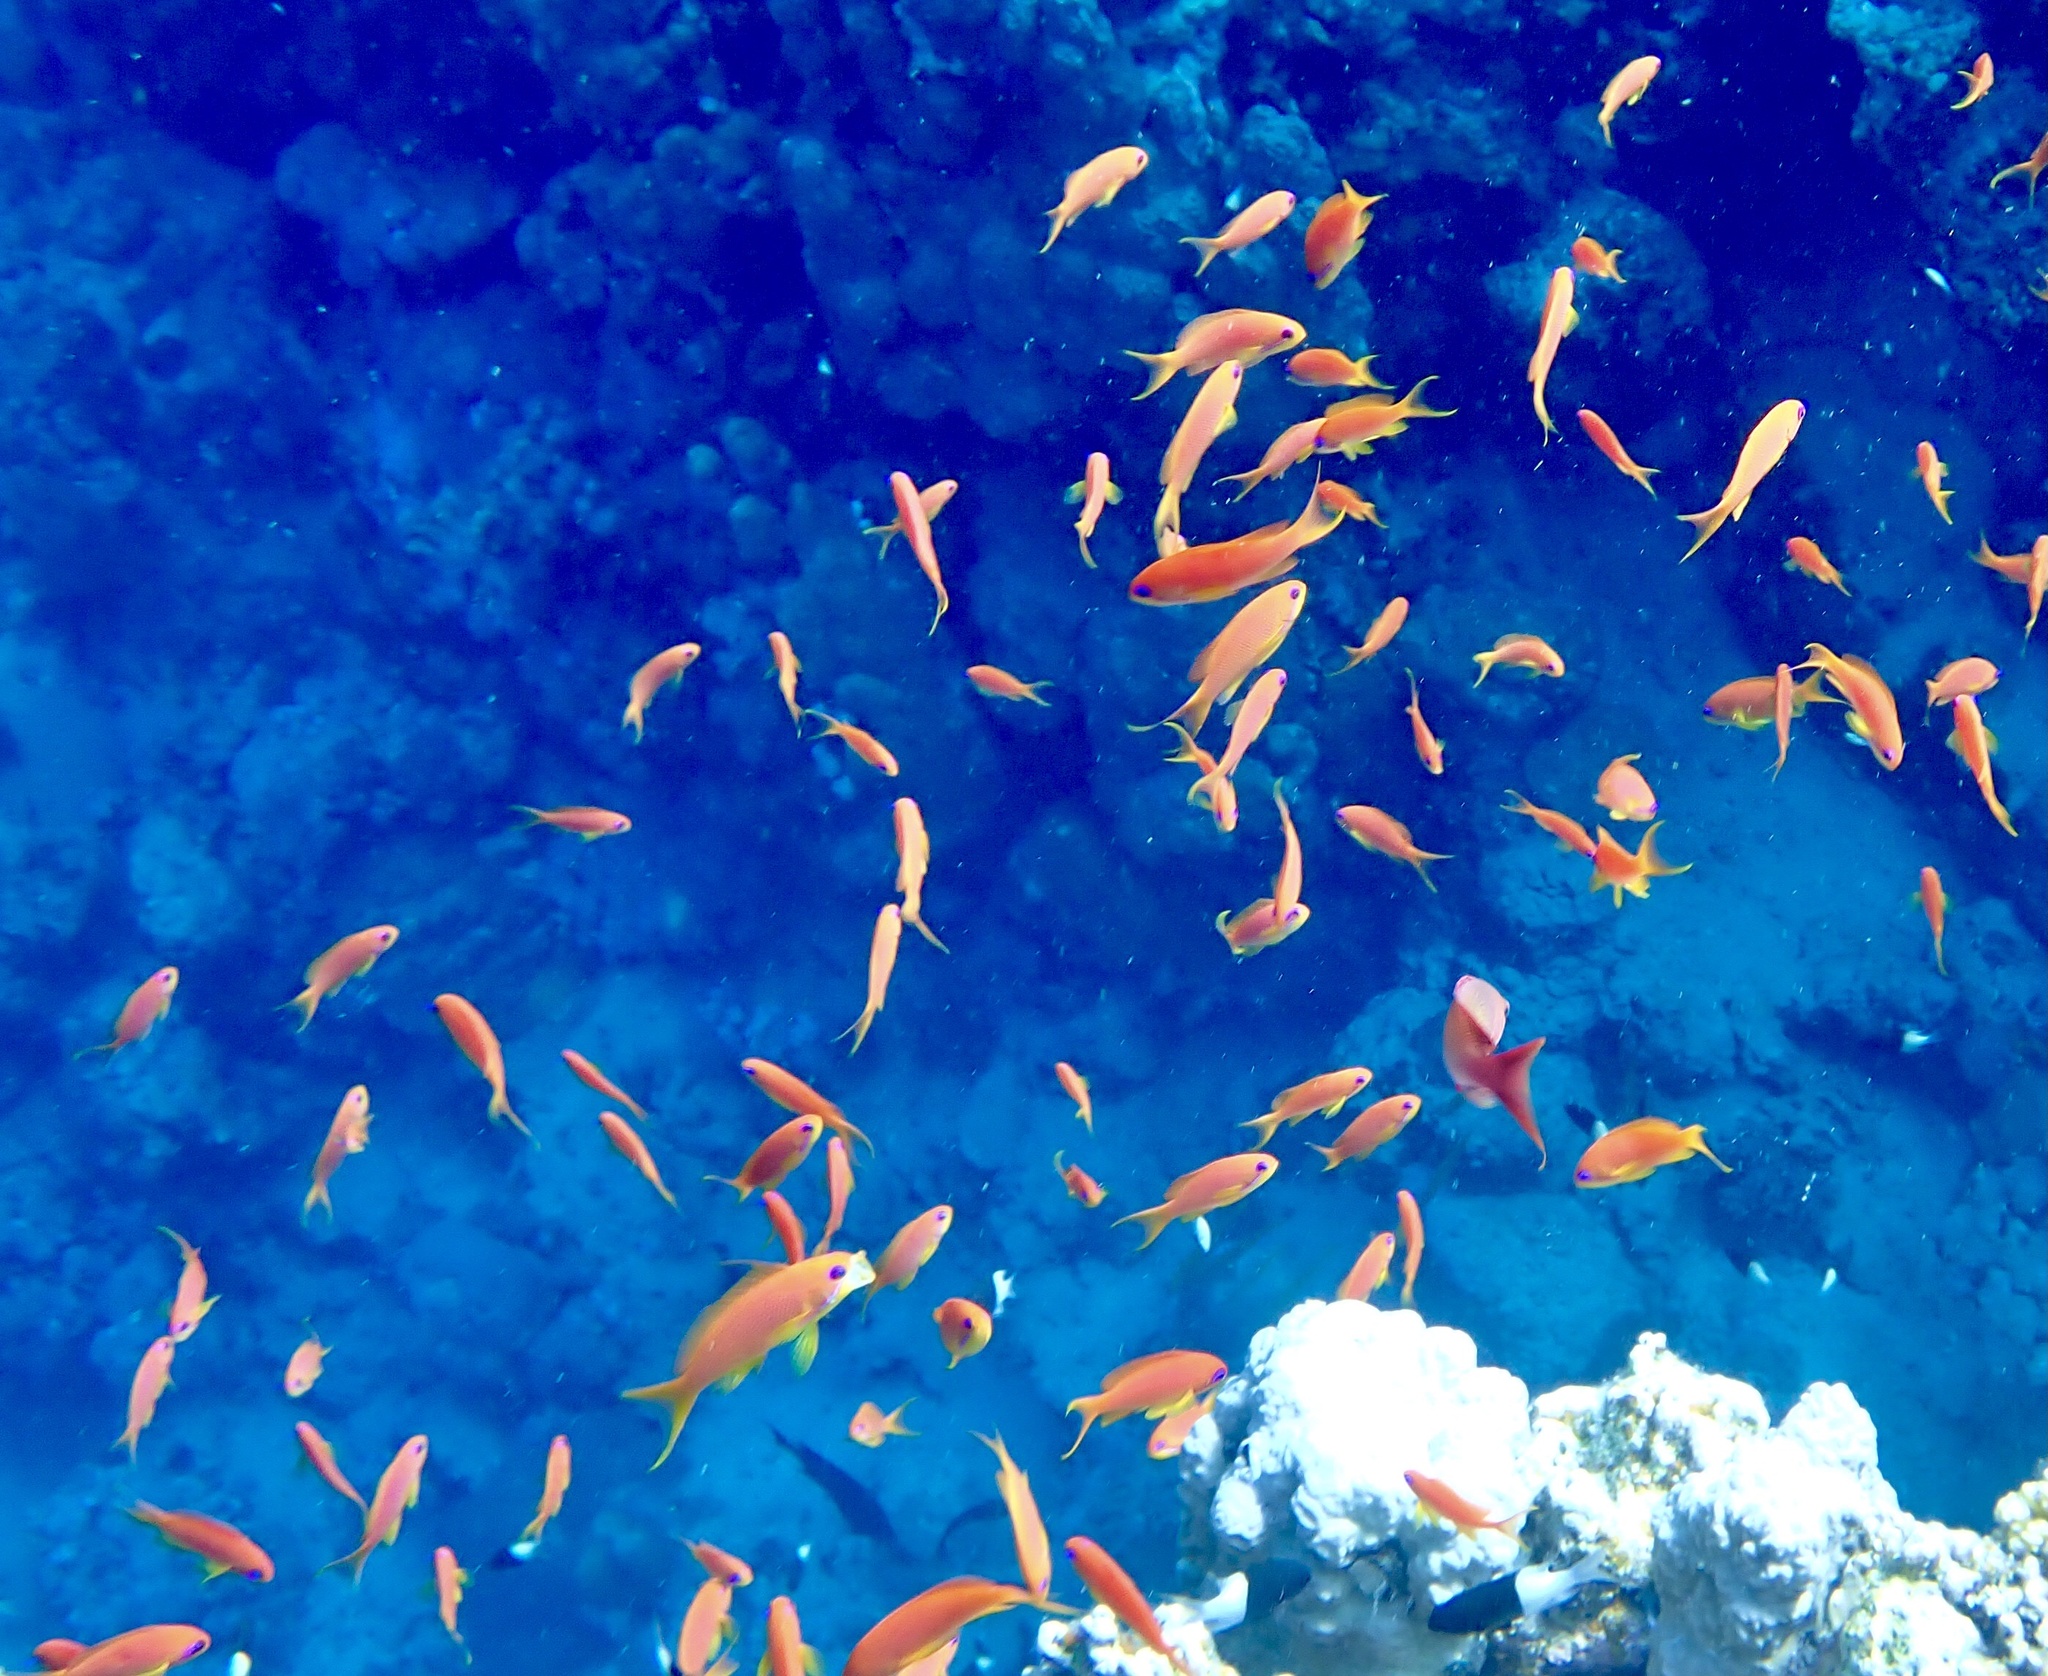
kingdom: Animalia
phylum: Chordata
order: Perciformes
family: Serranidae
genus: Pseudanthias
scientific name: Pseudanthias squamipinnis
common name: Scalefin anthias
